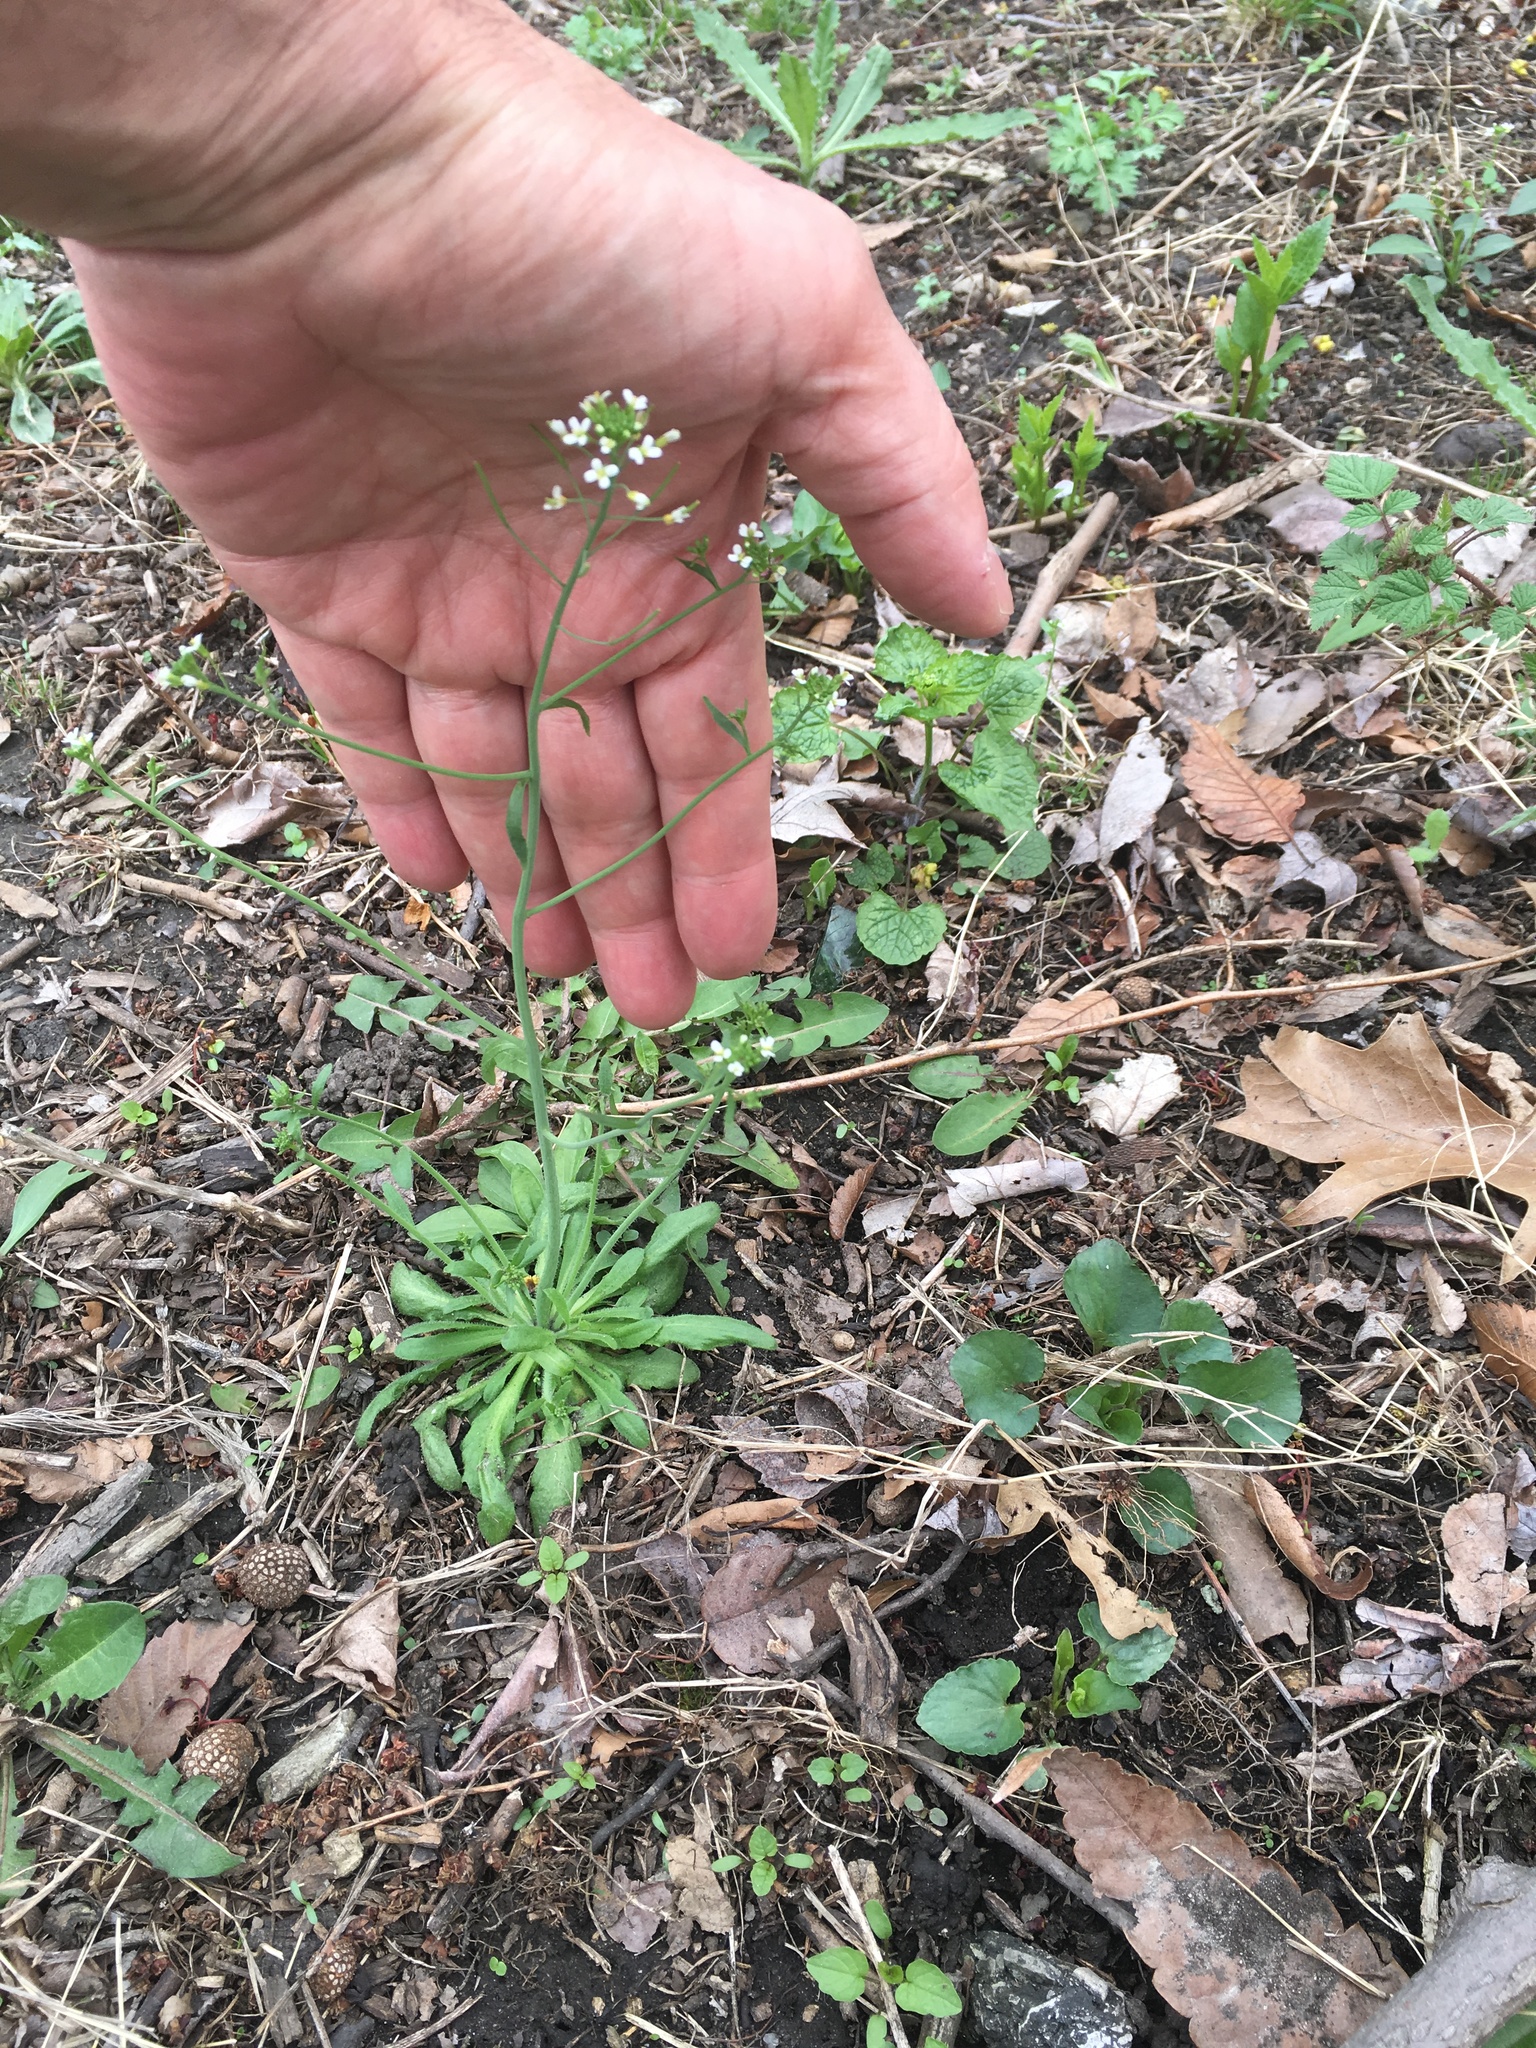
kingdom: Plantae
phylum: Tracheophyta
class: Magnoliopsida
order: Brassicales
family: Brassicaceae
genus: Capsella
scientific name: Capsella bursa-pastoris
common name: Shepherd's purse
